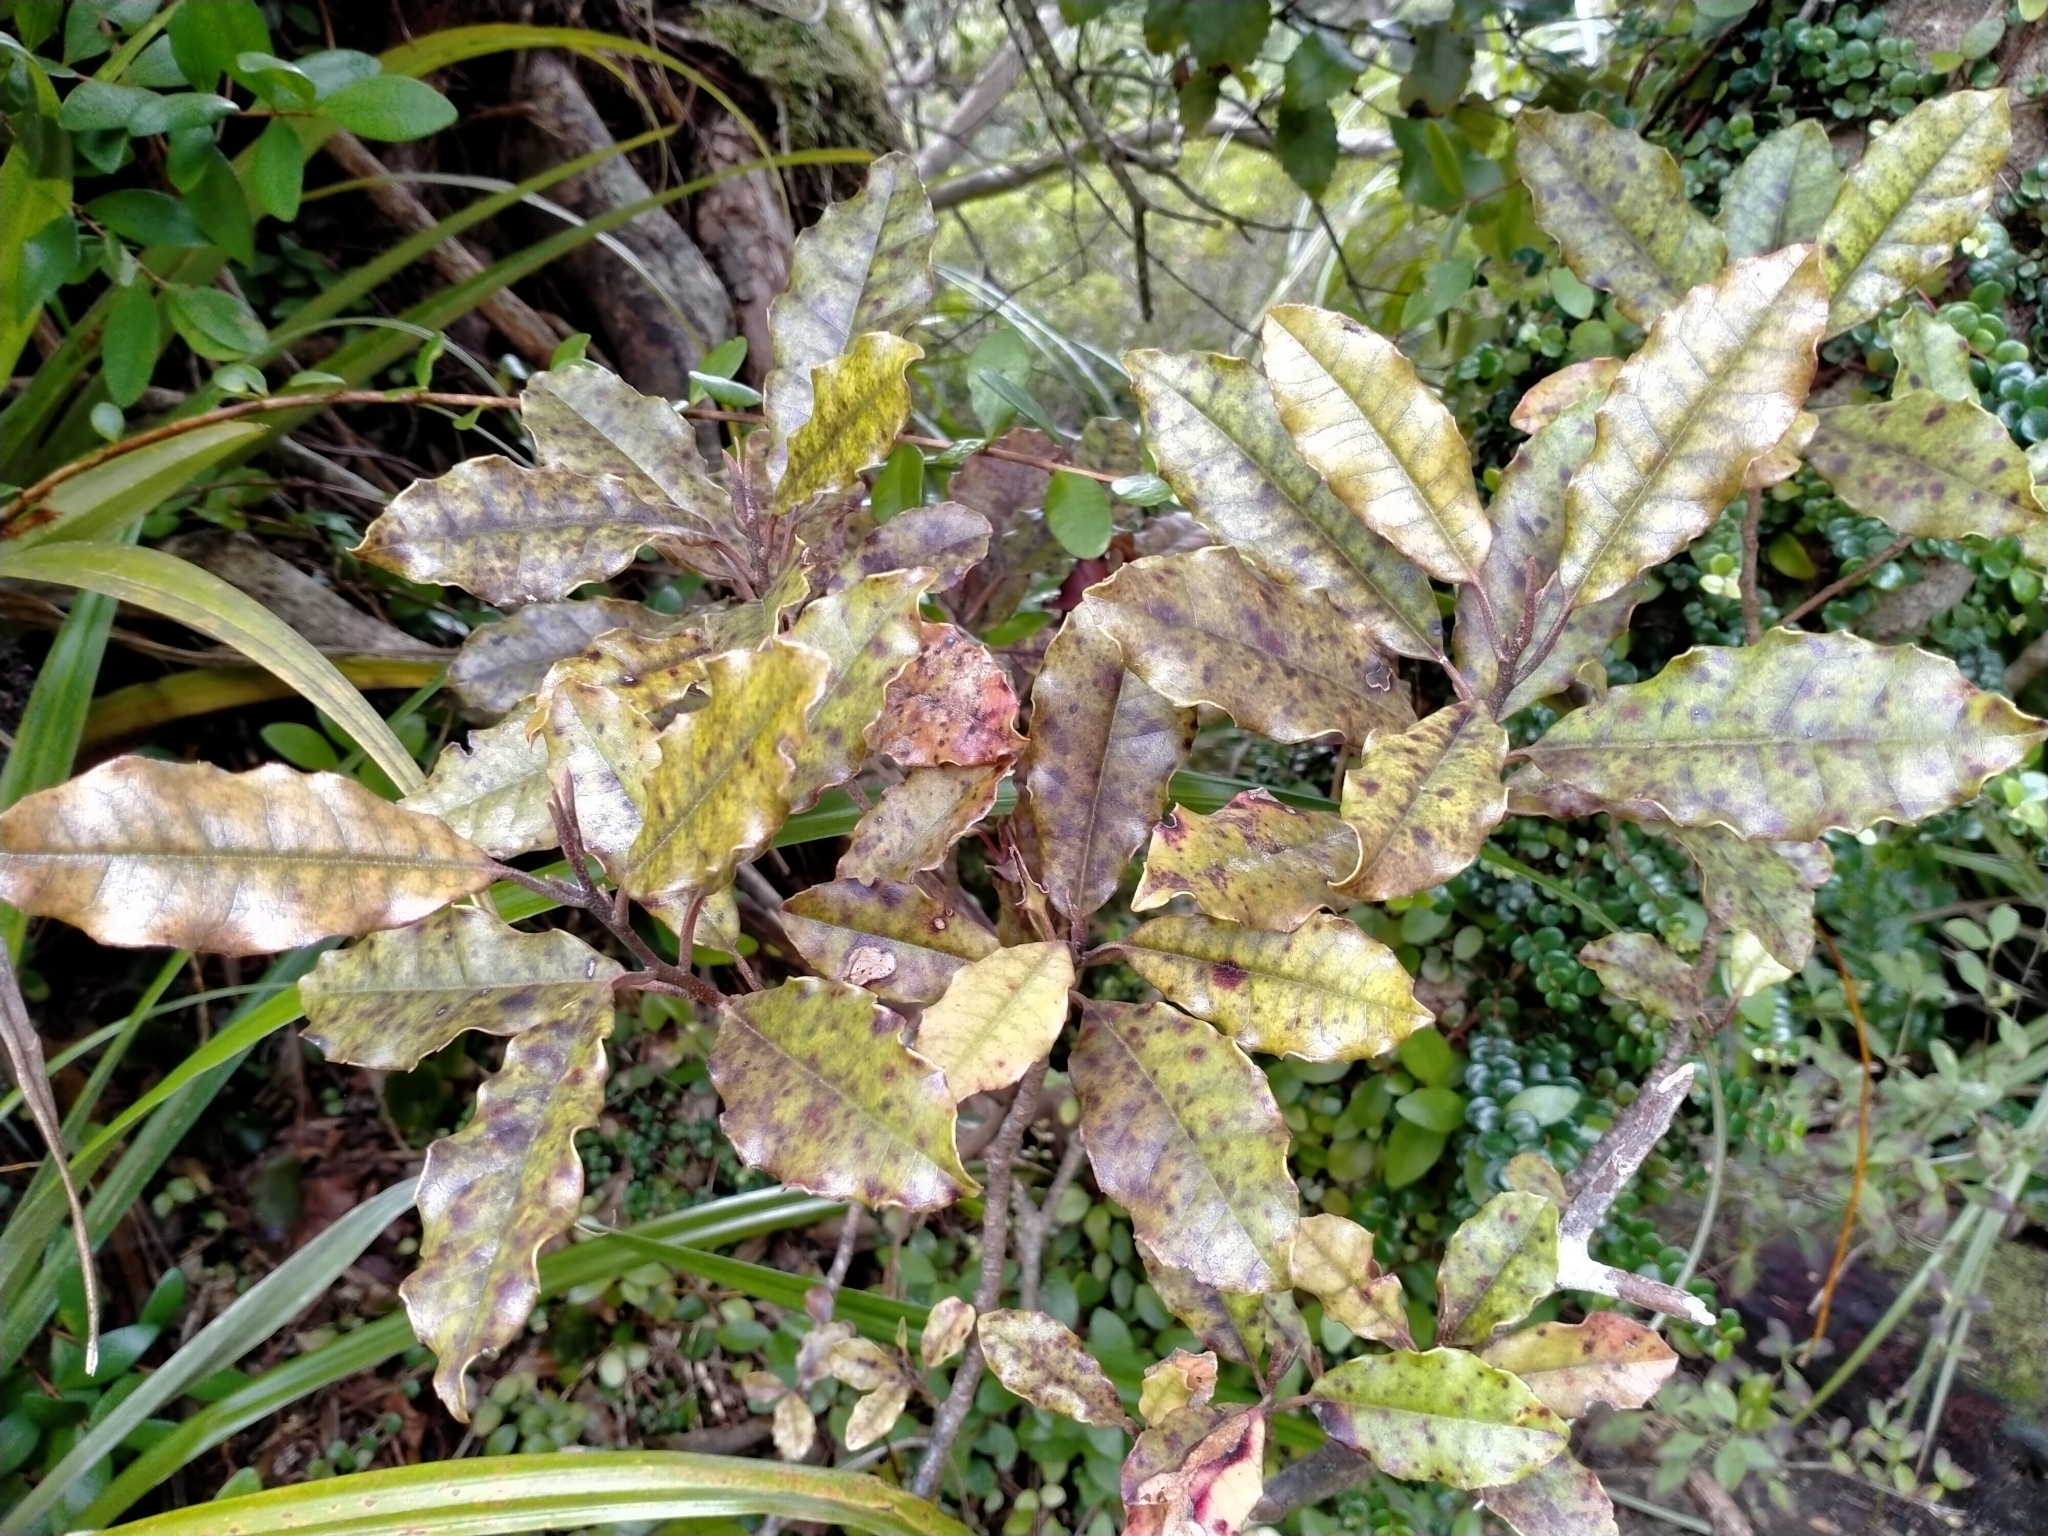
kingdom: Plantae
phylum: Tracheophyta
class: Magnoliopsida
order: Paracryphiales
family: Paracryphiaceae
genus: Quintinia
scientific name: Quintinia serrata
